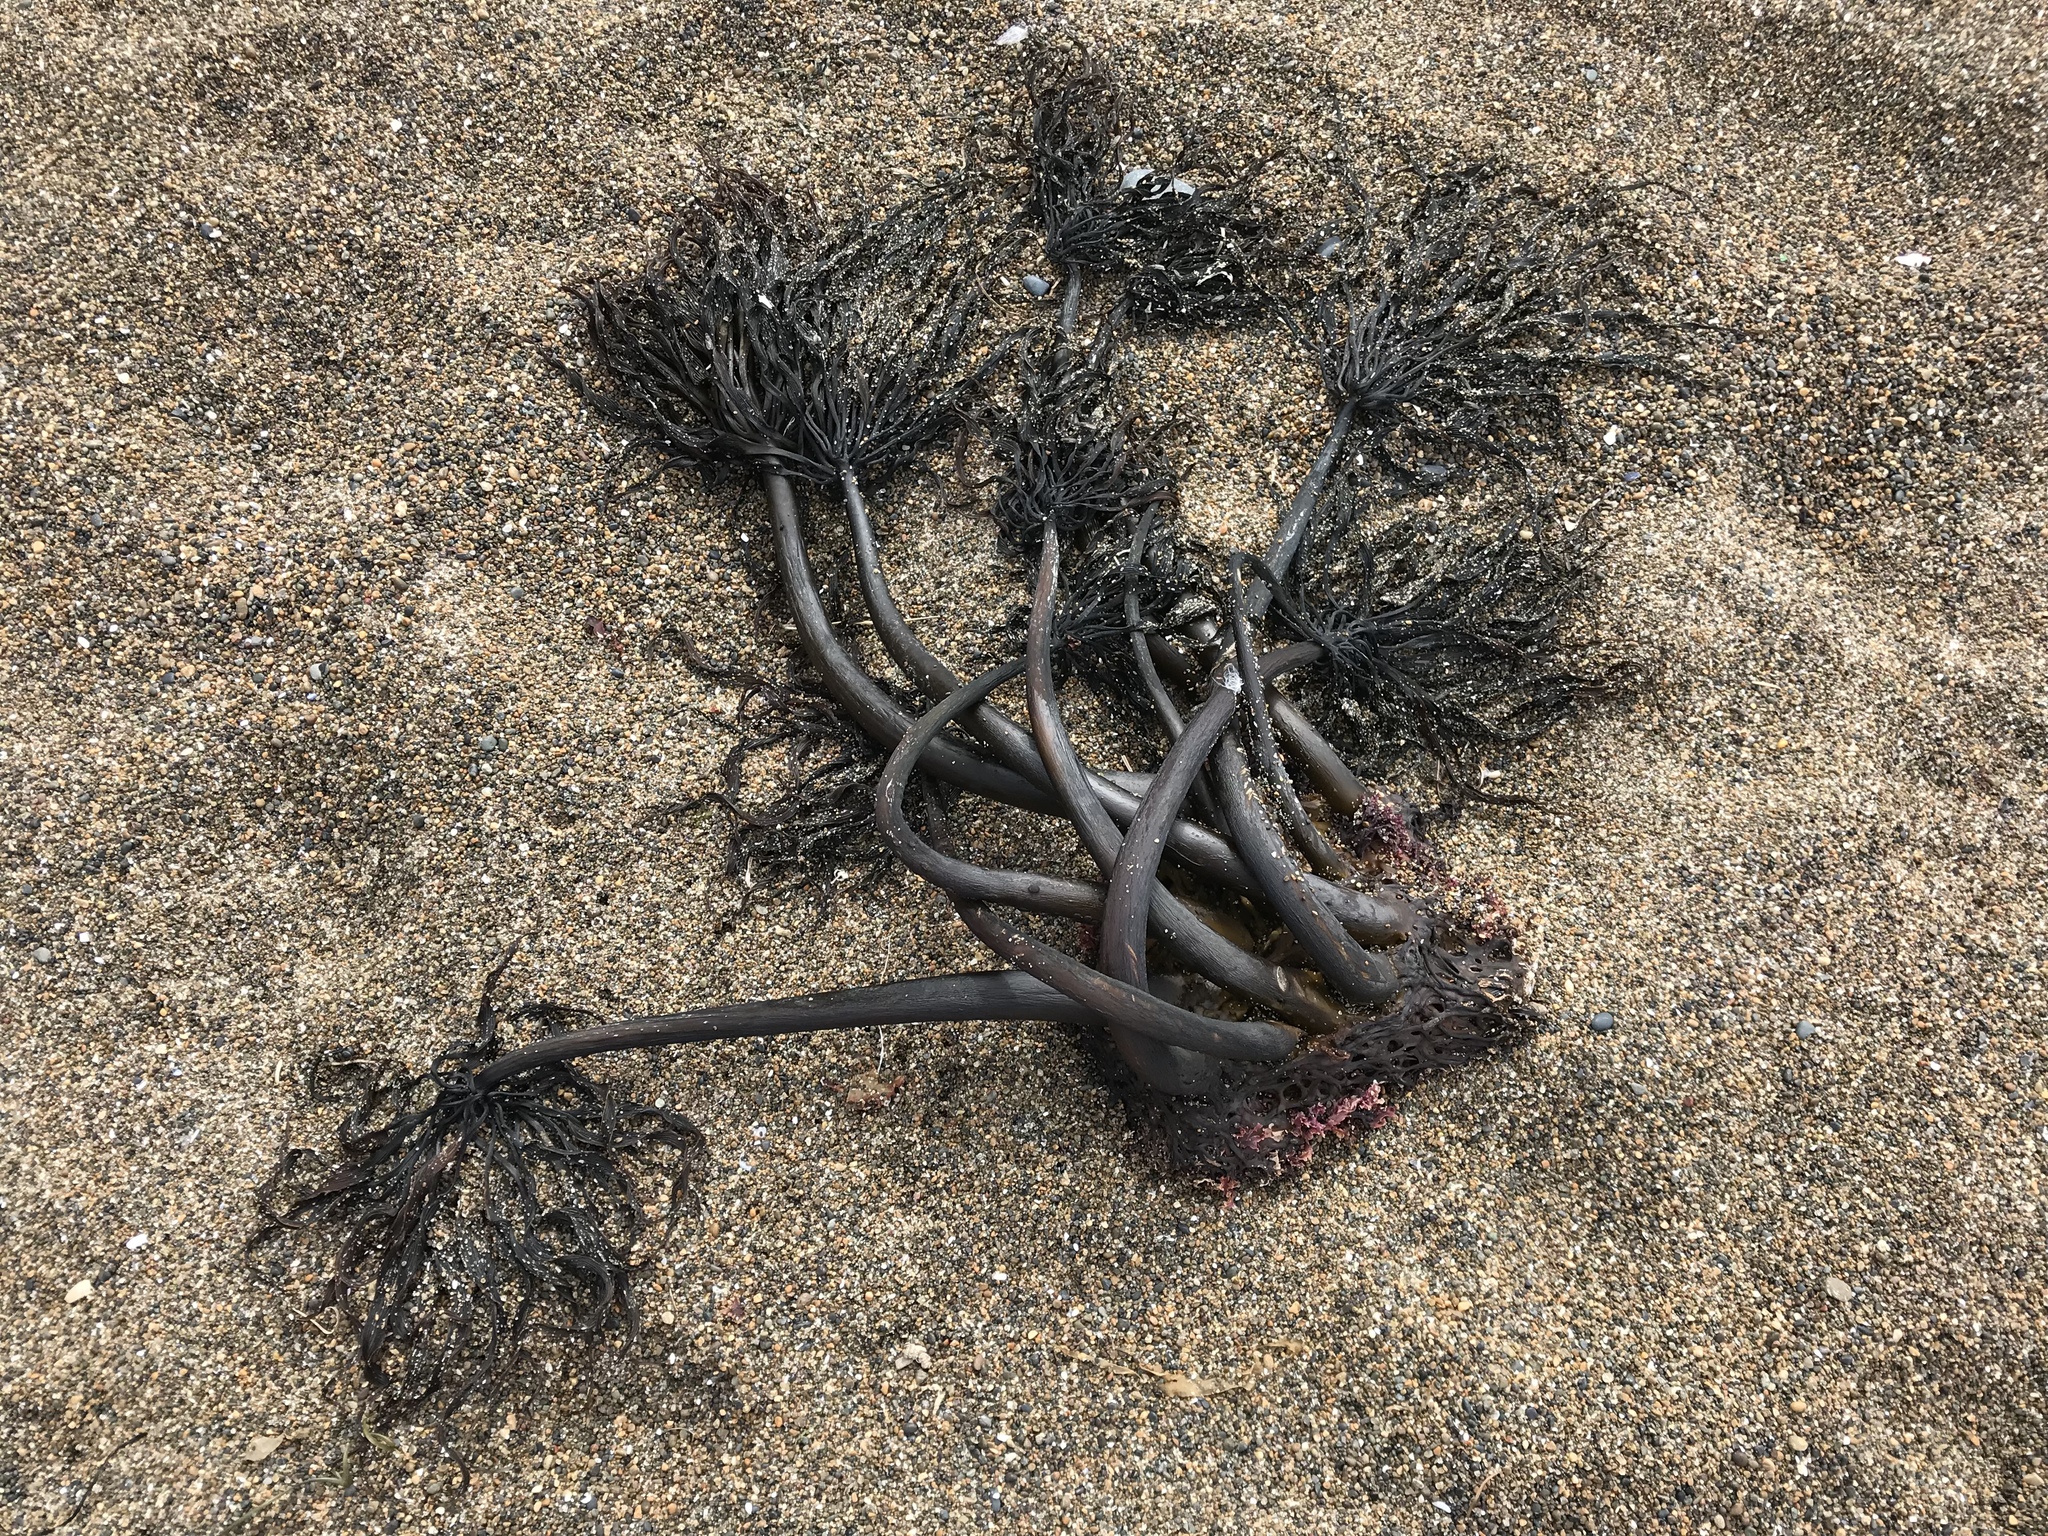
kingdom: Chromista
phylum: Ochrophyta
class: Phaeophyceae
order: Laminariales
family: Laminariaceae
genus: Postelsia
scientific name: Postelsia palmiformis
